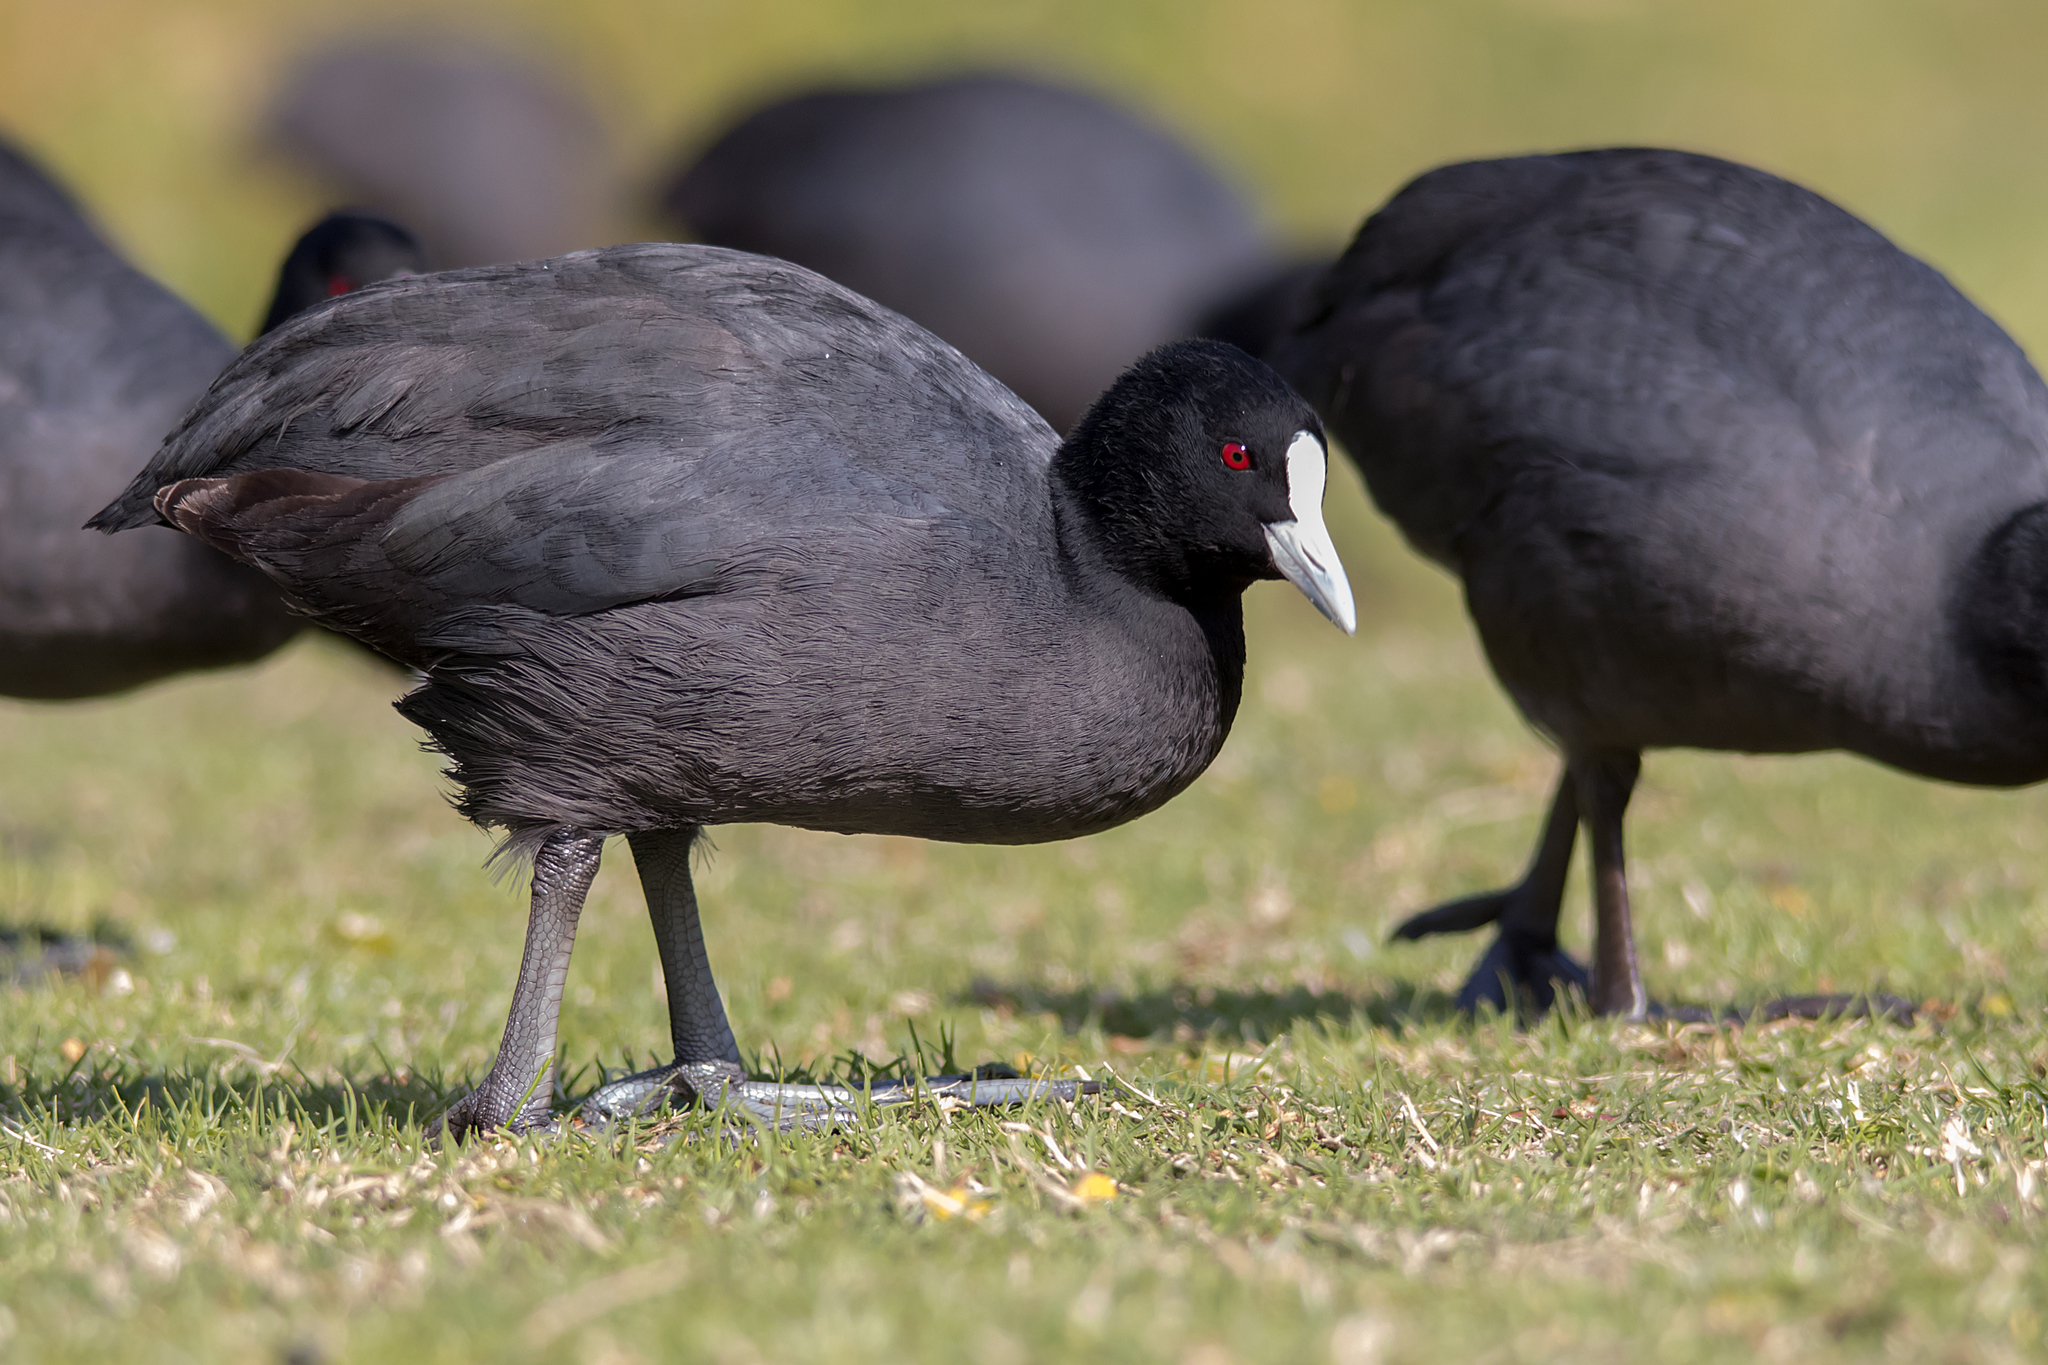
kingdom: Animalia
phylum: Chordata
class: Aves
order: Gruiformes
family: Rallidae
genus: Fulica
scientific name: Fulica atra
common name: Eurasian coot
